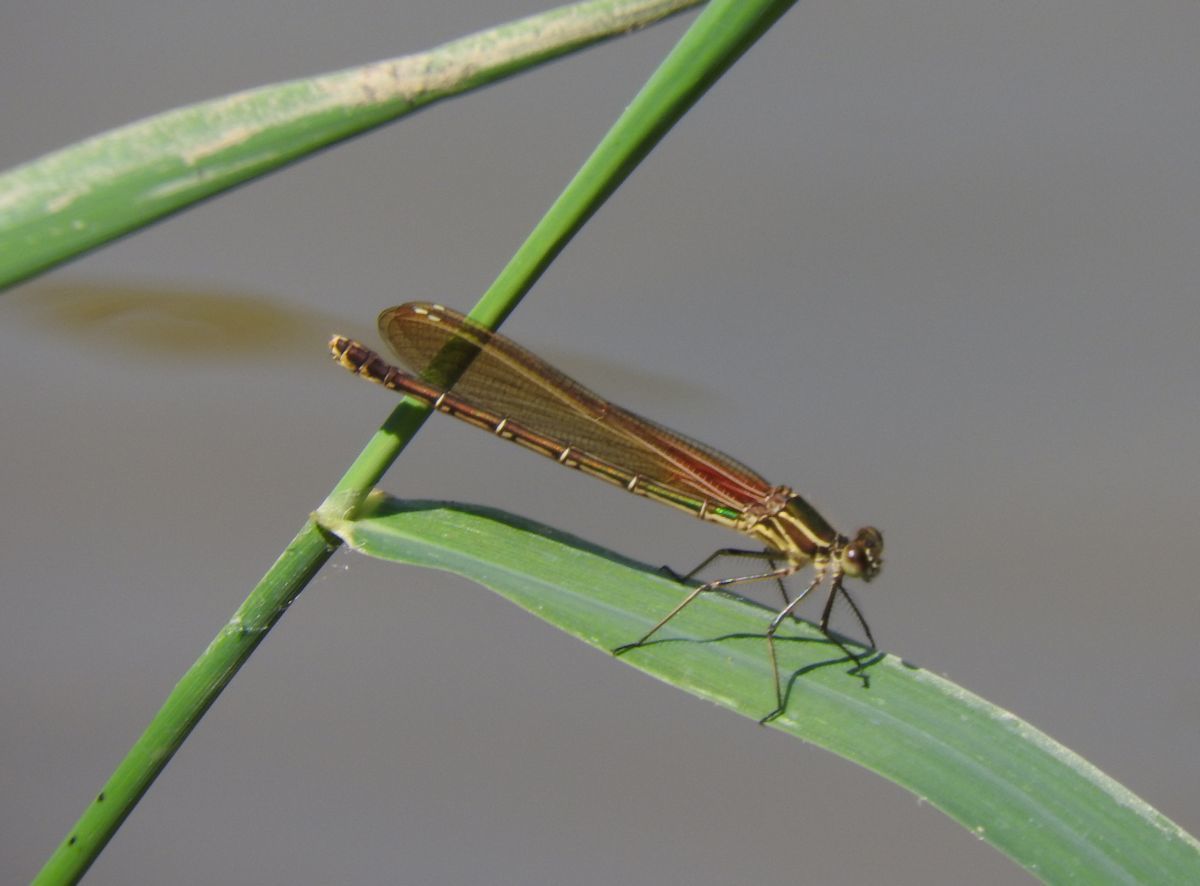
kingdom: Animalia
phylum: Arthropoda
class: Insecta
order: Odonata
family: Calopterygidae
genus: Hetaerina
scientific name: Hetaerina americana
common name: American rubyspot
